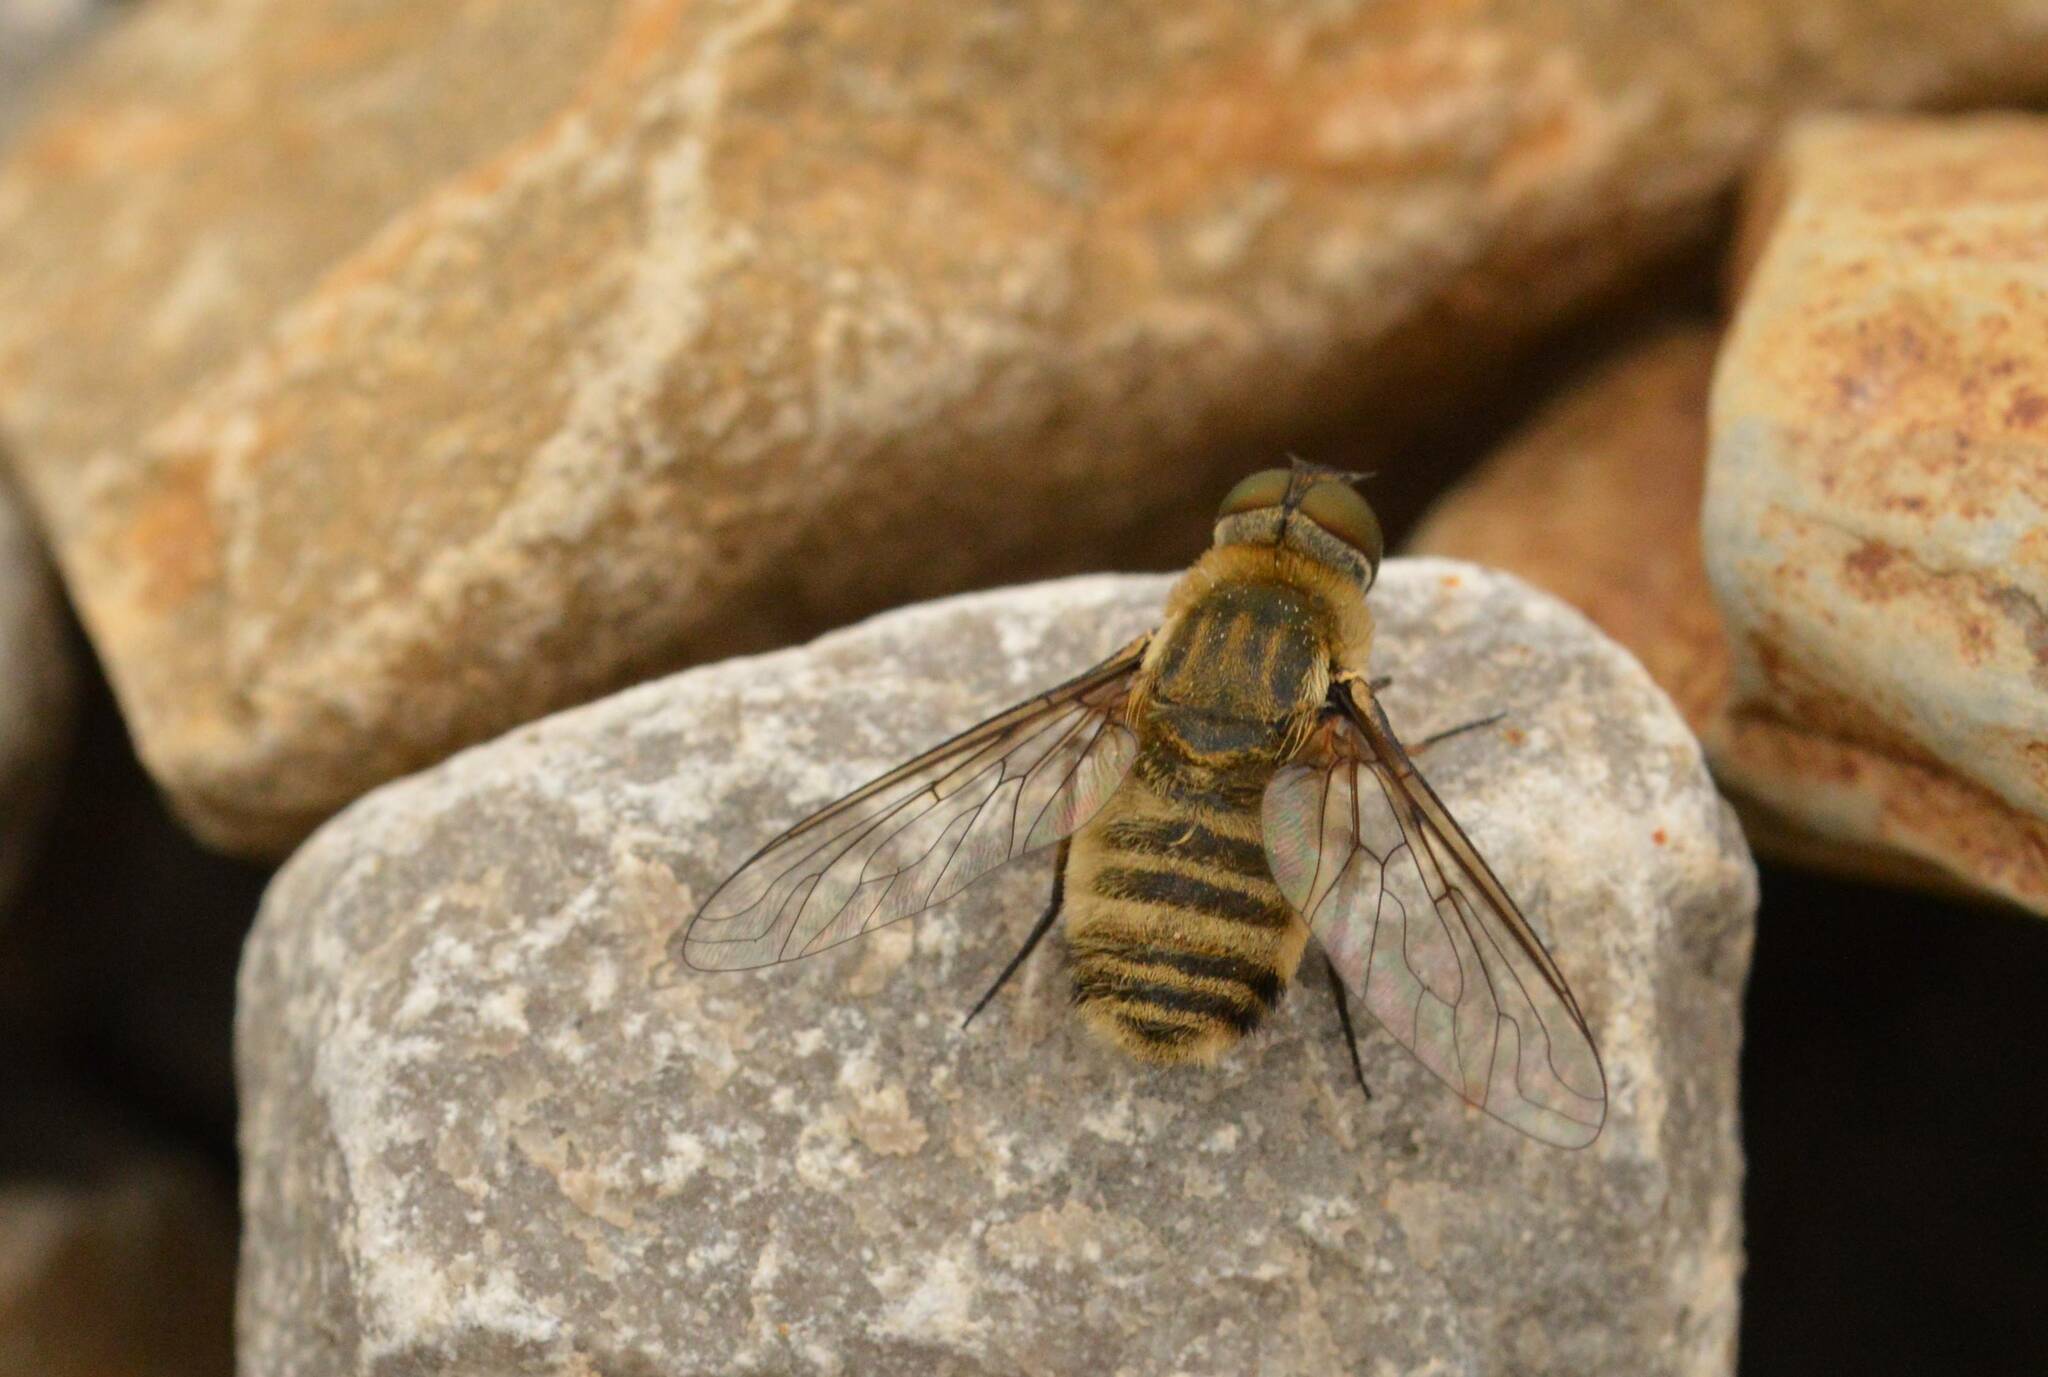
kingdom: Animalia
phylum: Arthropoda
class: Insecta
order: Diptera
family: Bombyliidae
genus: Villa
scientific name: Villa hottentotta
